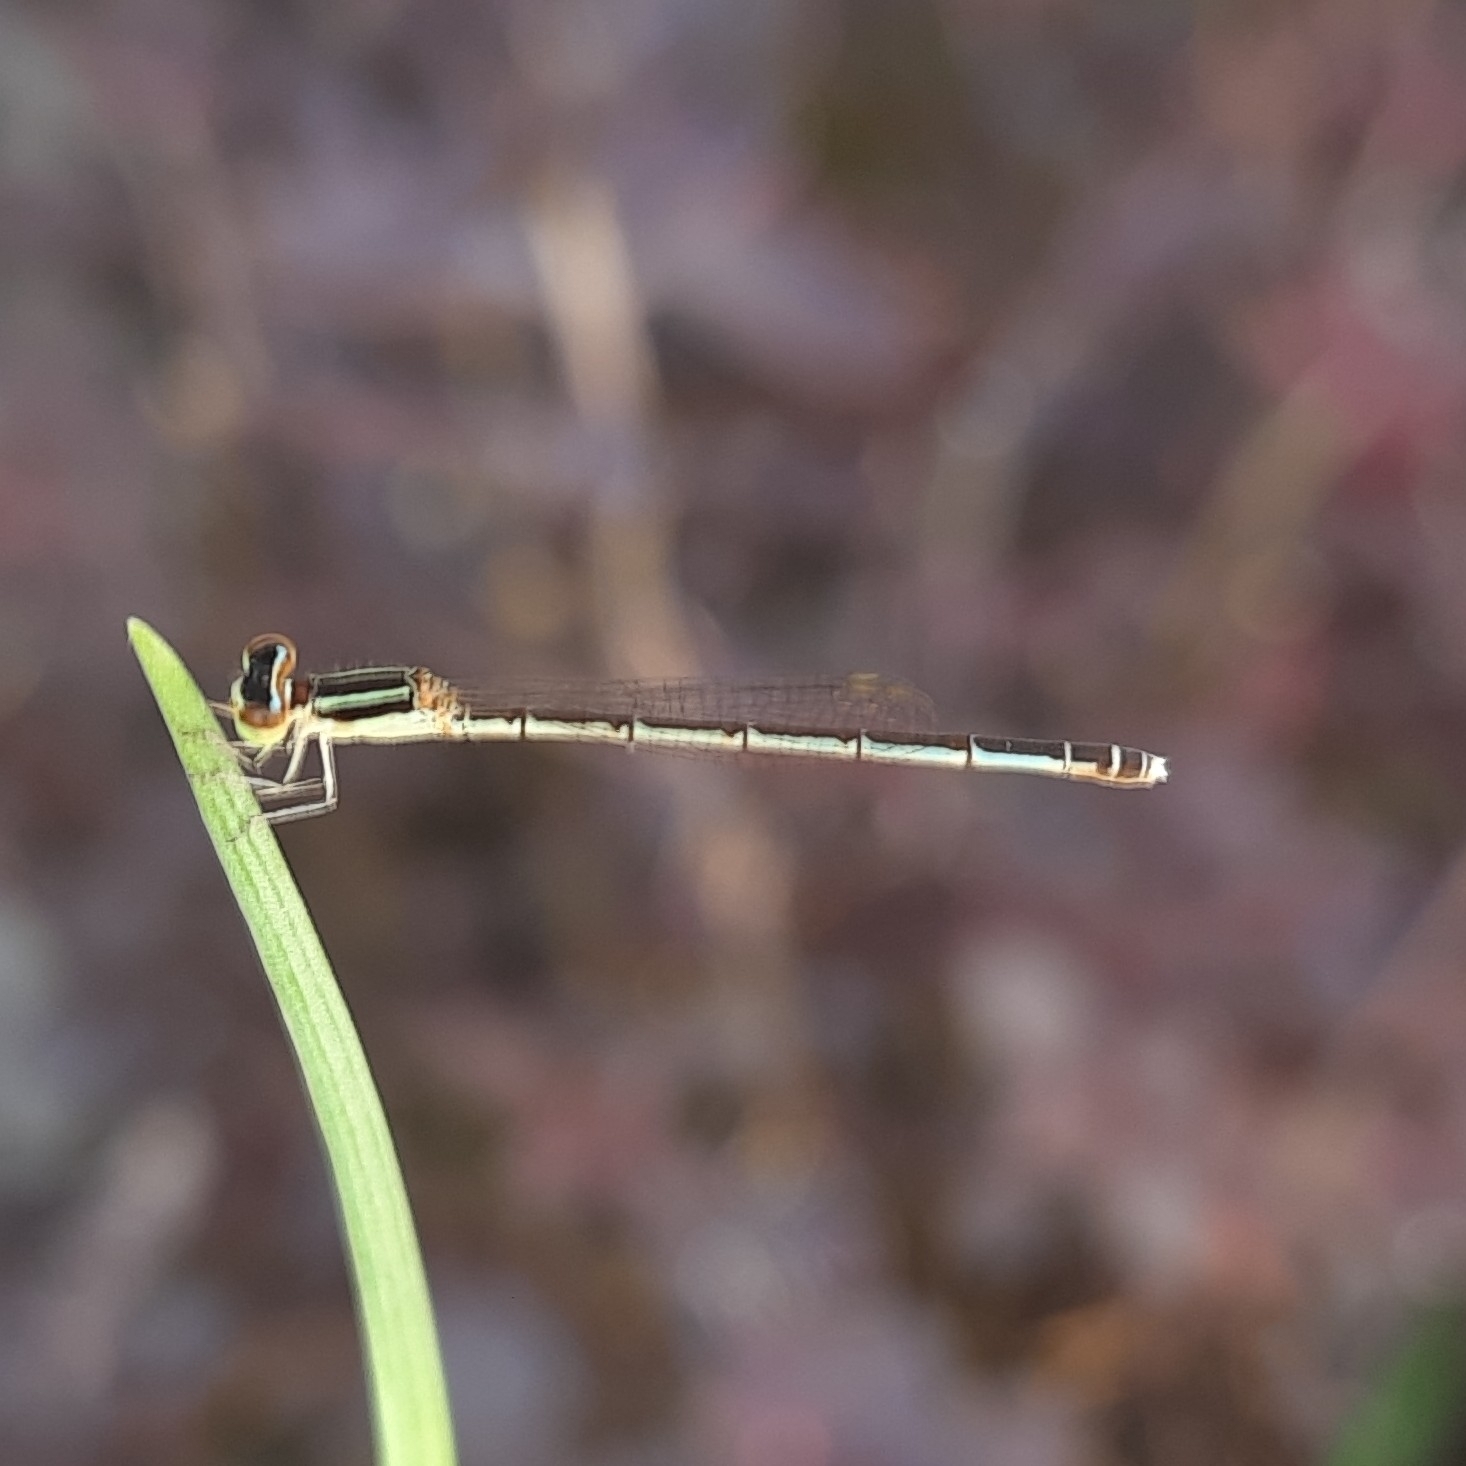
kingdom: Animalia
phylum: Arthropoda
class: Insecta
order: Odonata
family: Coenagrionidae
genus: Agriocnemis
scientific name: Agriocnemis pieris
